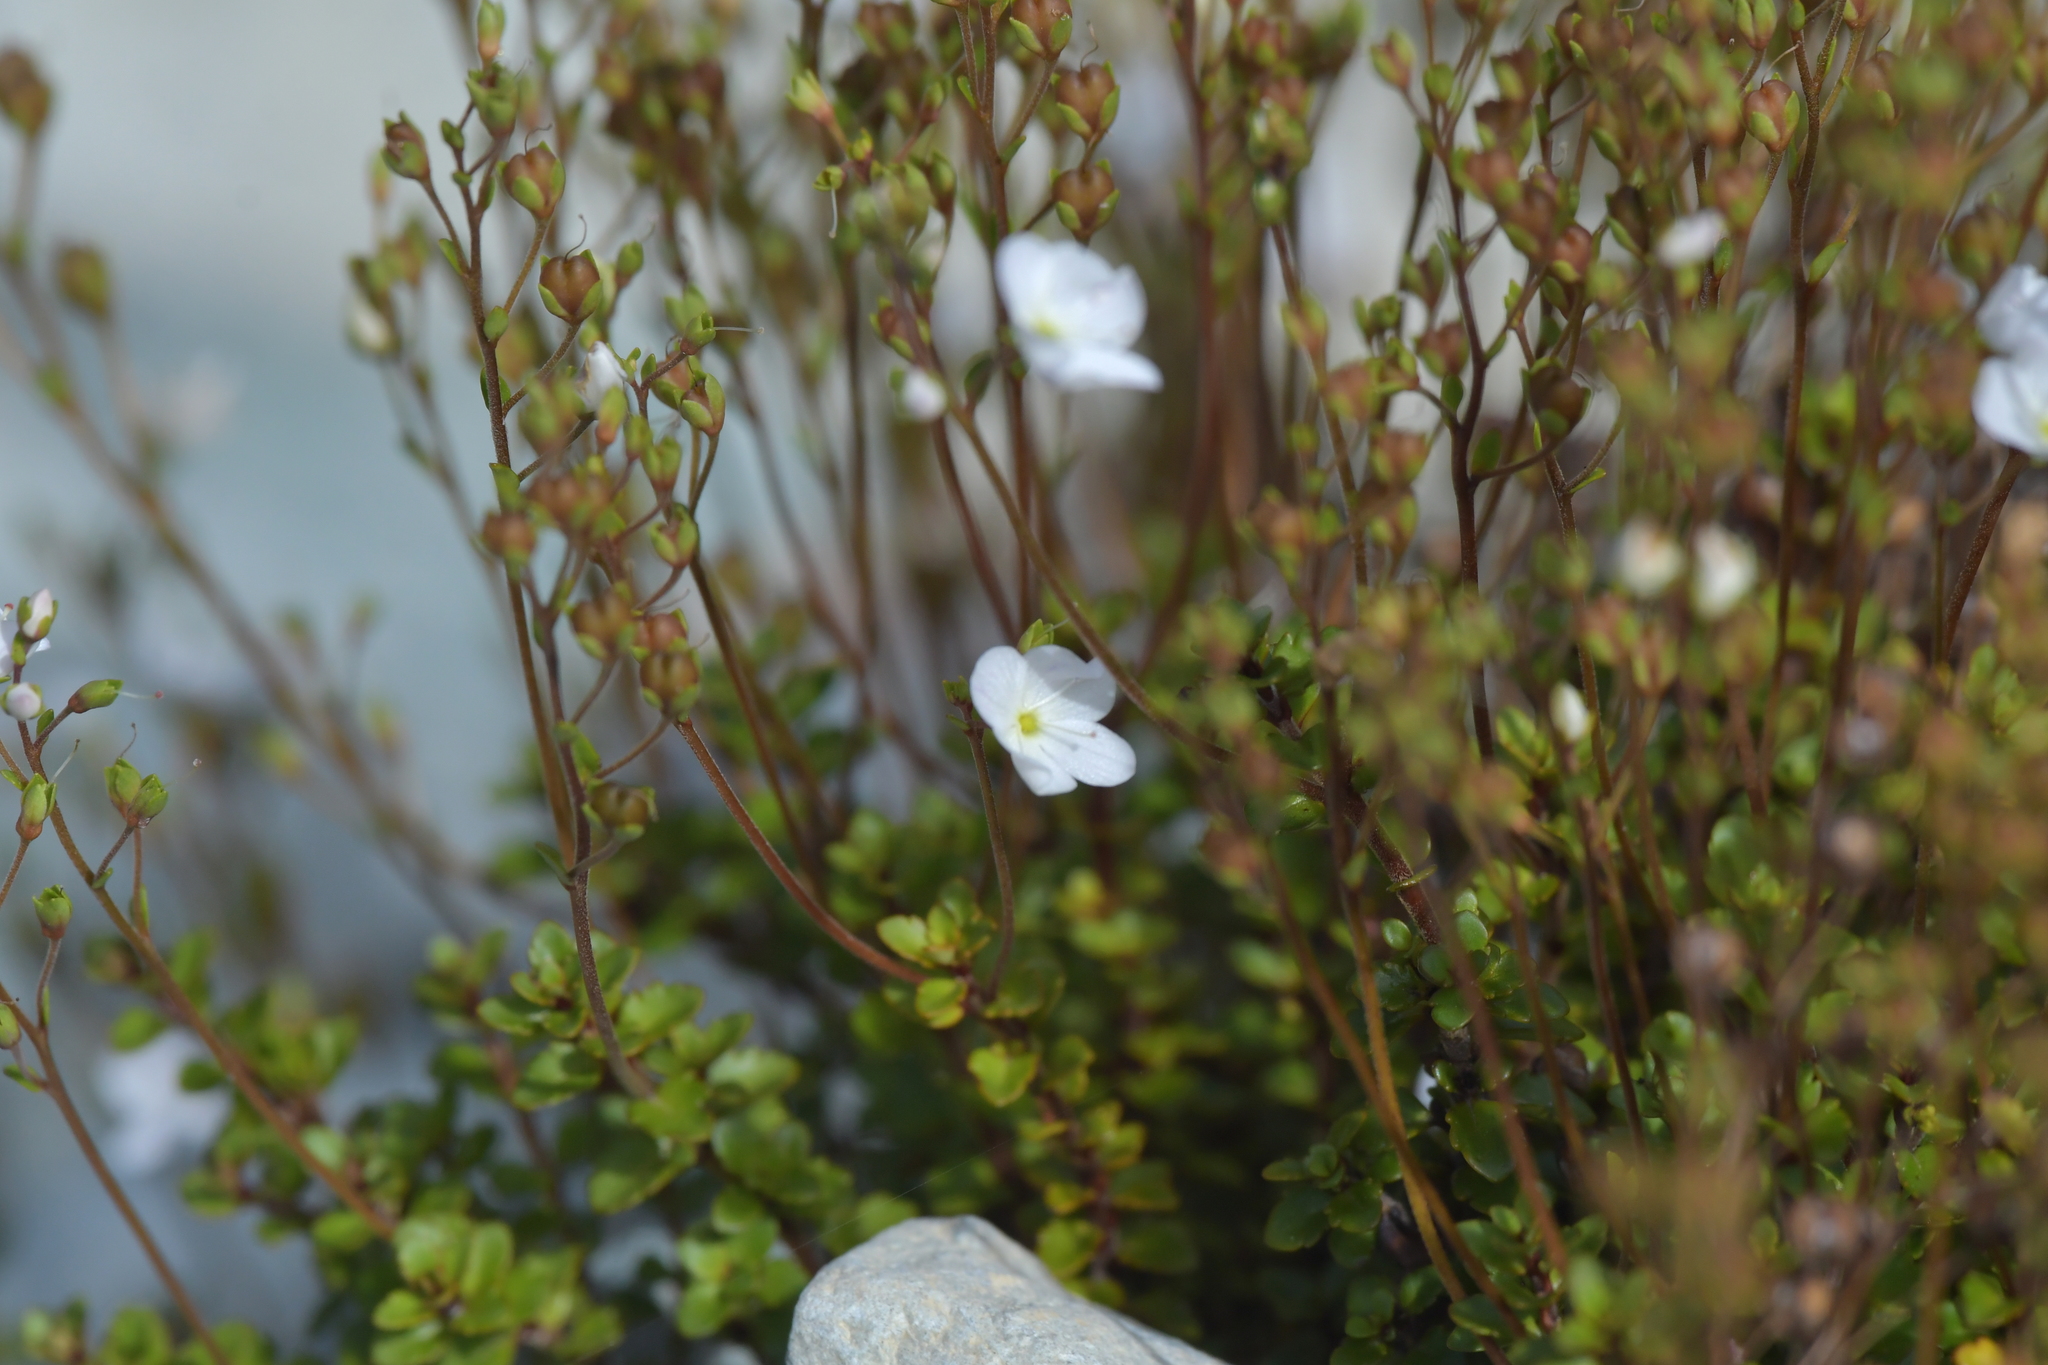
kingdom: Plantae
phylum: Tracheophyta
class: Magnoliopsida
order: Lamiales
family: Plantaginaceae
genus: Veronica
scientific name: Veronica lyallii
